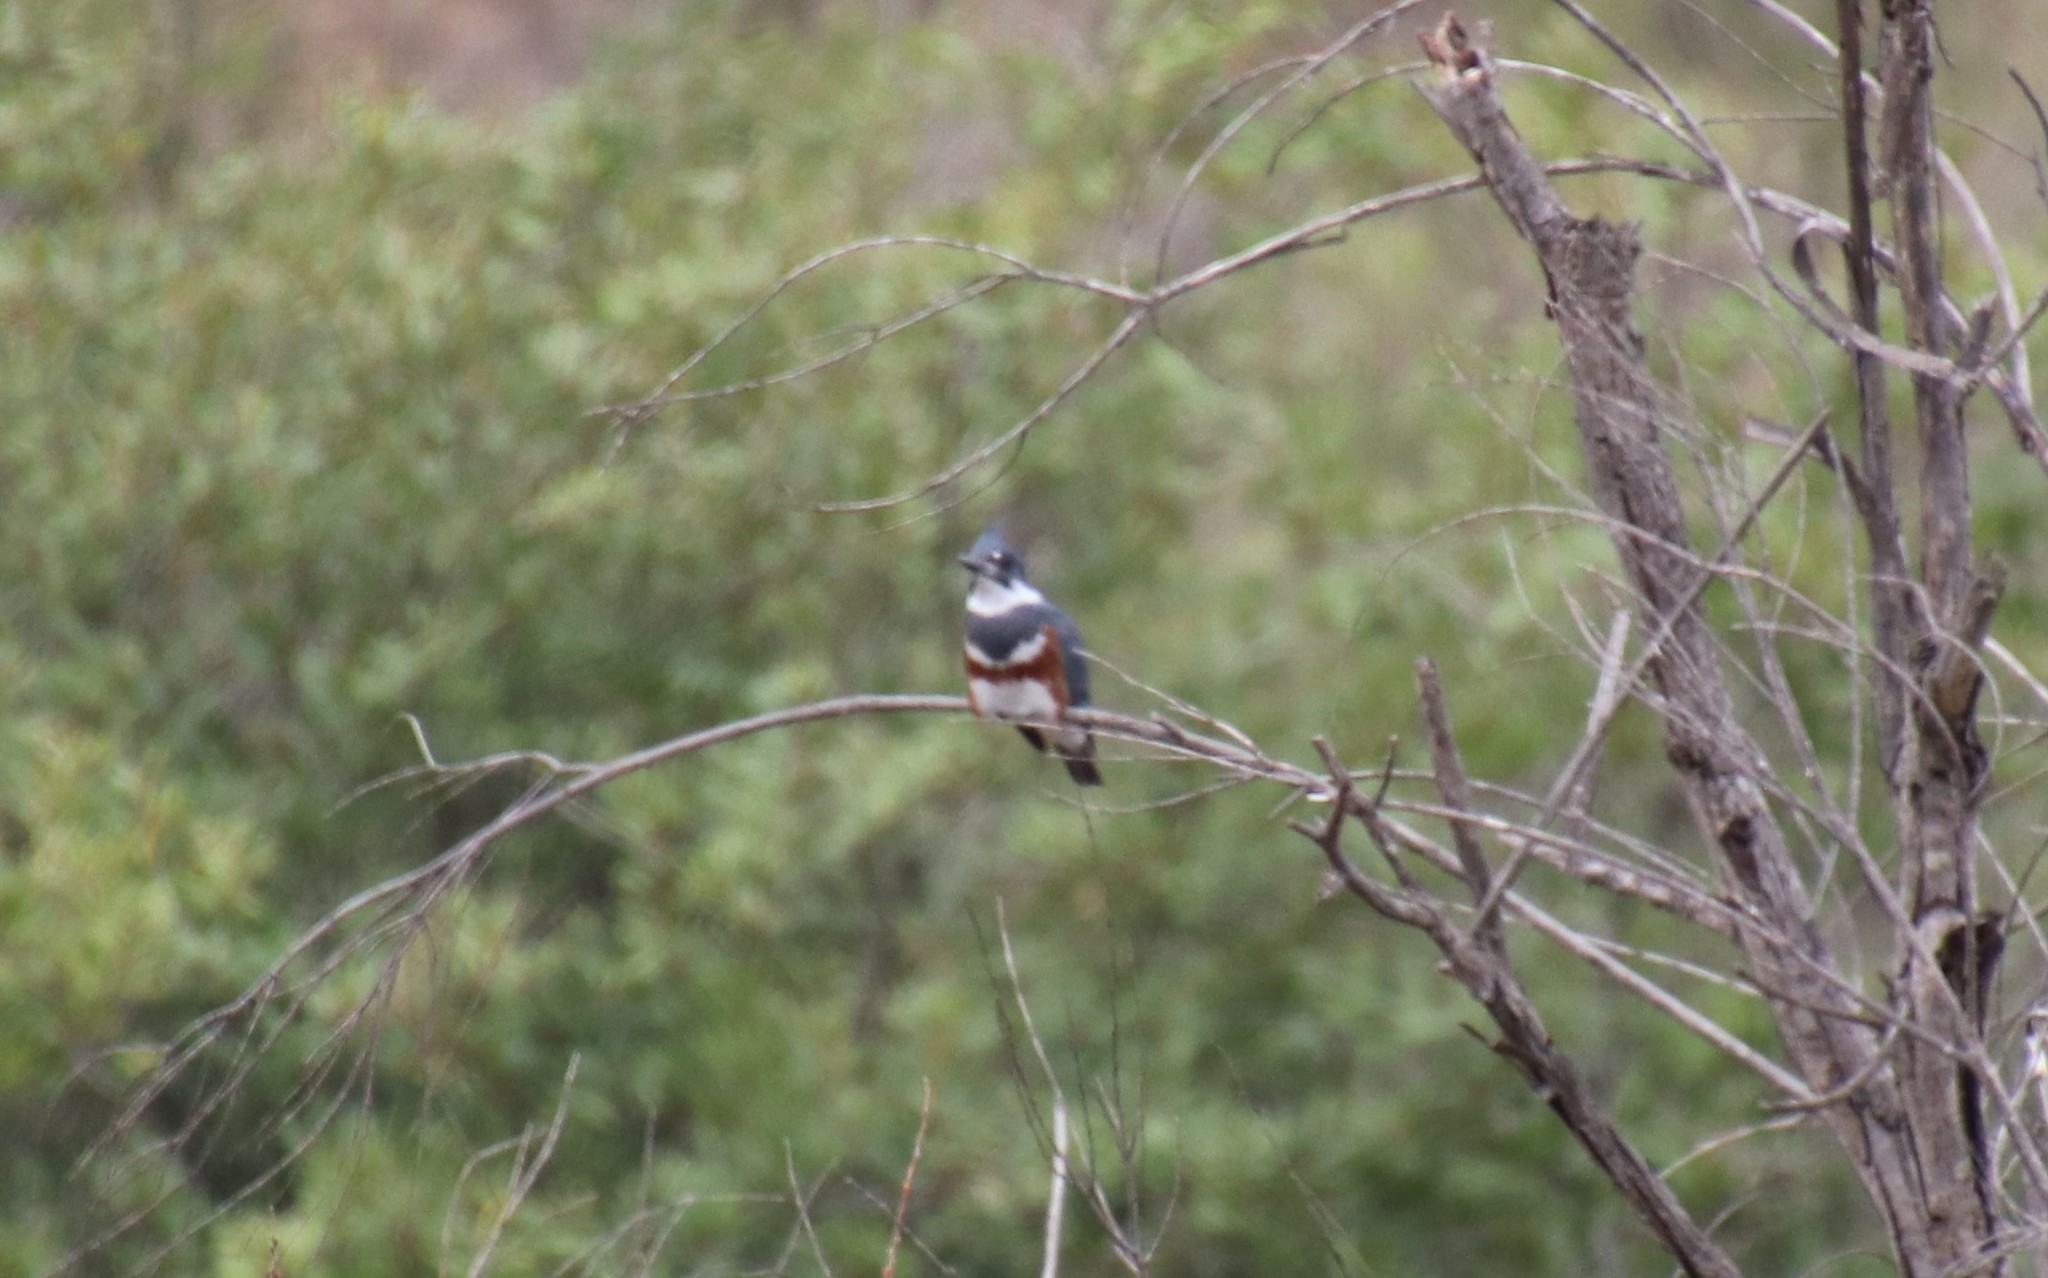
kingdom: Animalia
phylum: Chordata
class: Aves
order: Coraciiformes
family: Alcedinidae
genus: Megaceryle
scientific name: Megaceryle alcyon
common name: Belted kingfisher
